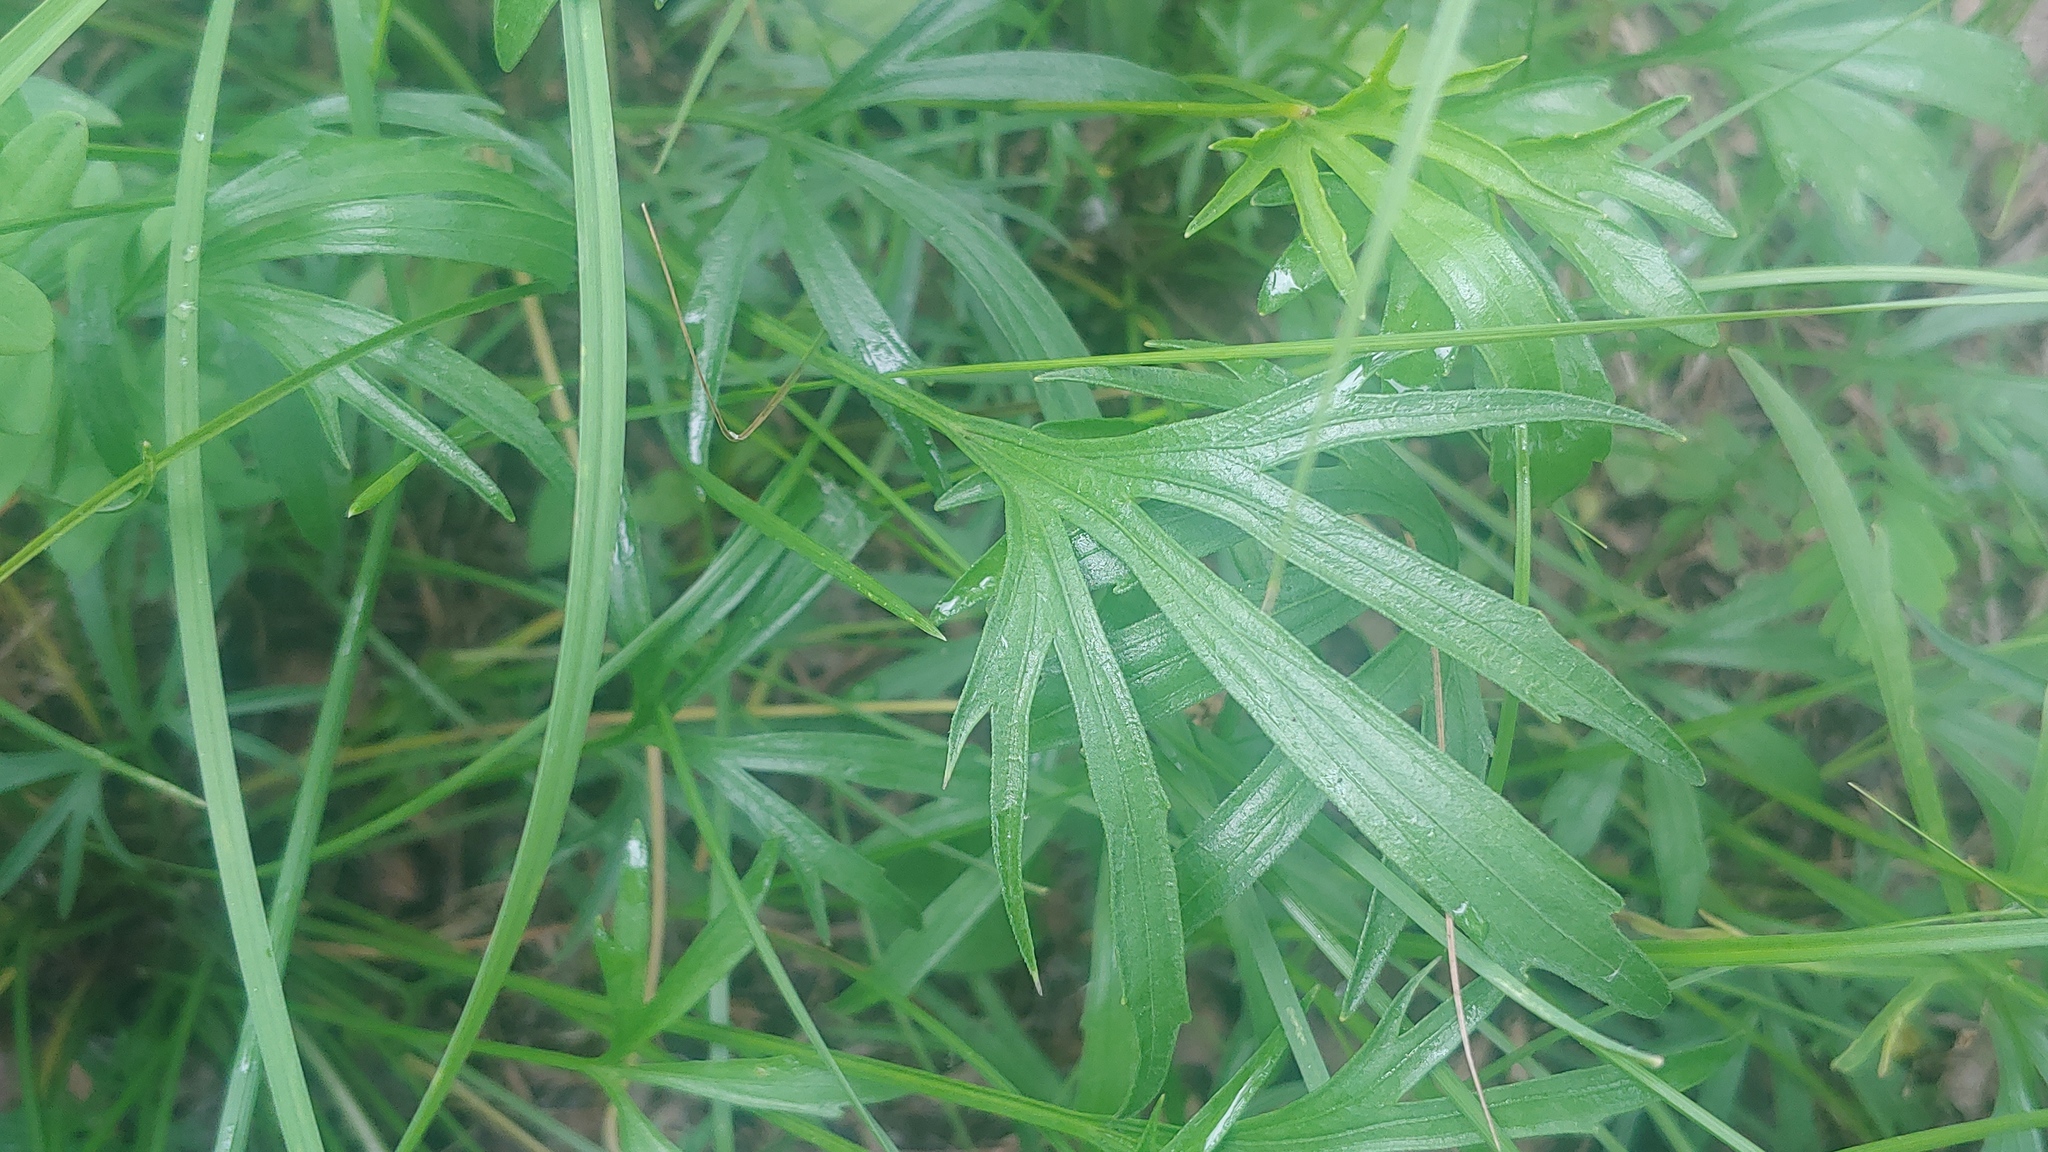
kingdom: Plantae
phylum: Tracheophyta
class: Magnoliopsida
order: Malpighiales
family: Violaceae
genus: Viola
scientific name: Viola pedata
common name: Pansy violet
